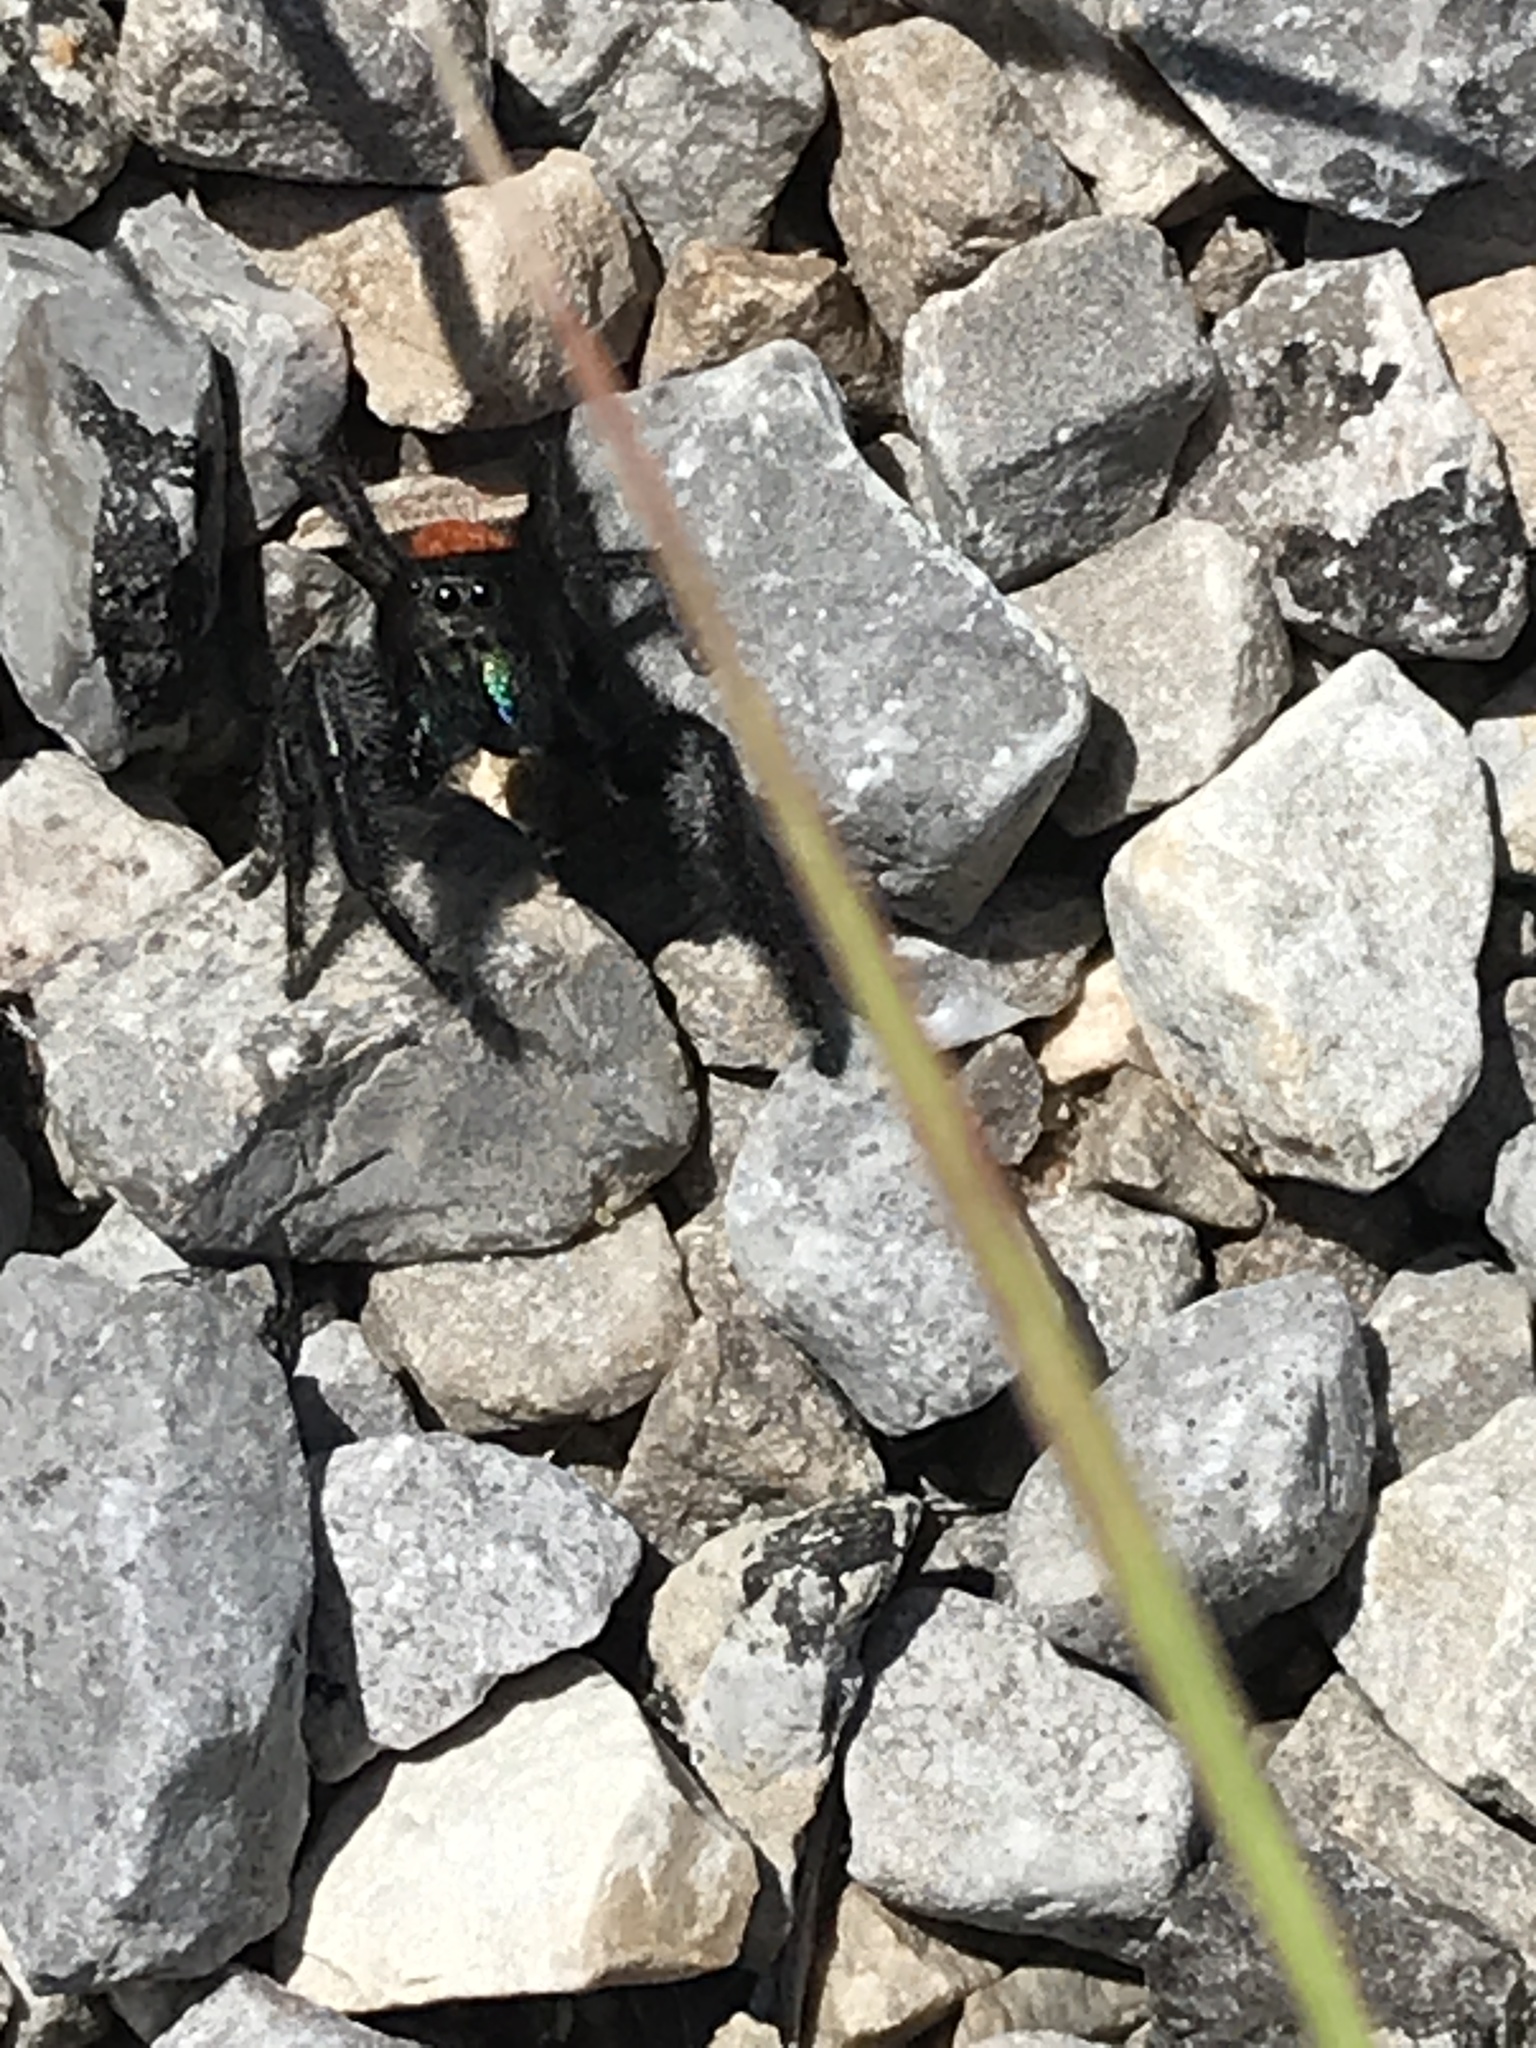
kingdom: Animalia
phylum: Arthropoda
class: Arachnida
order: Araneae
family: Salticidae
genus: Phidippus
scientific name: Phidippus texanus
